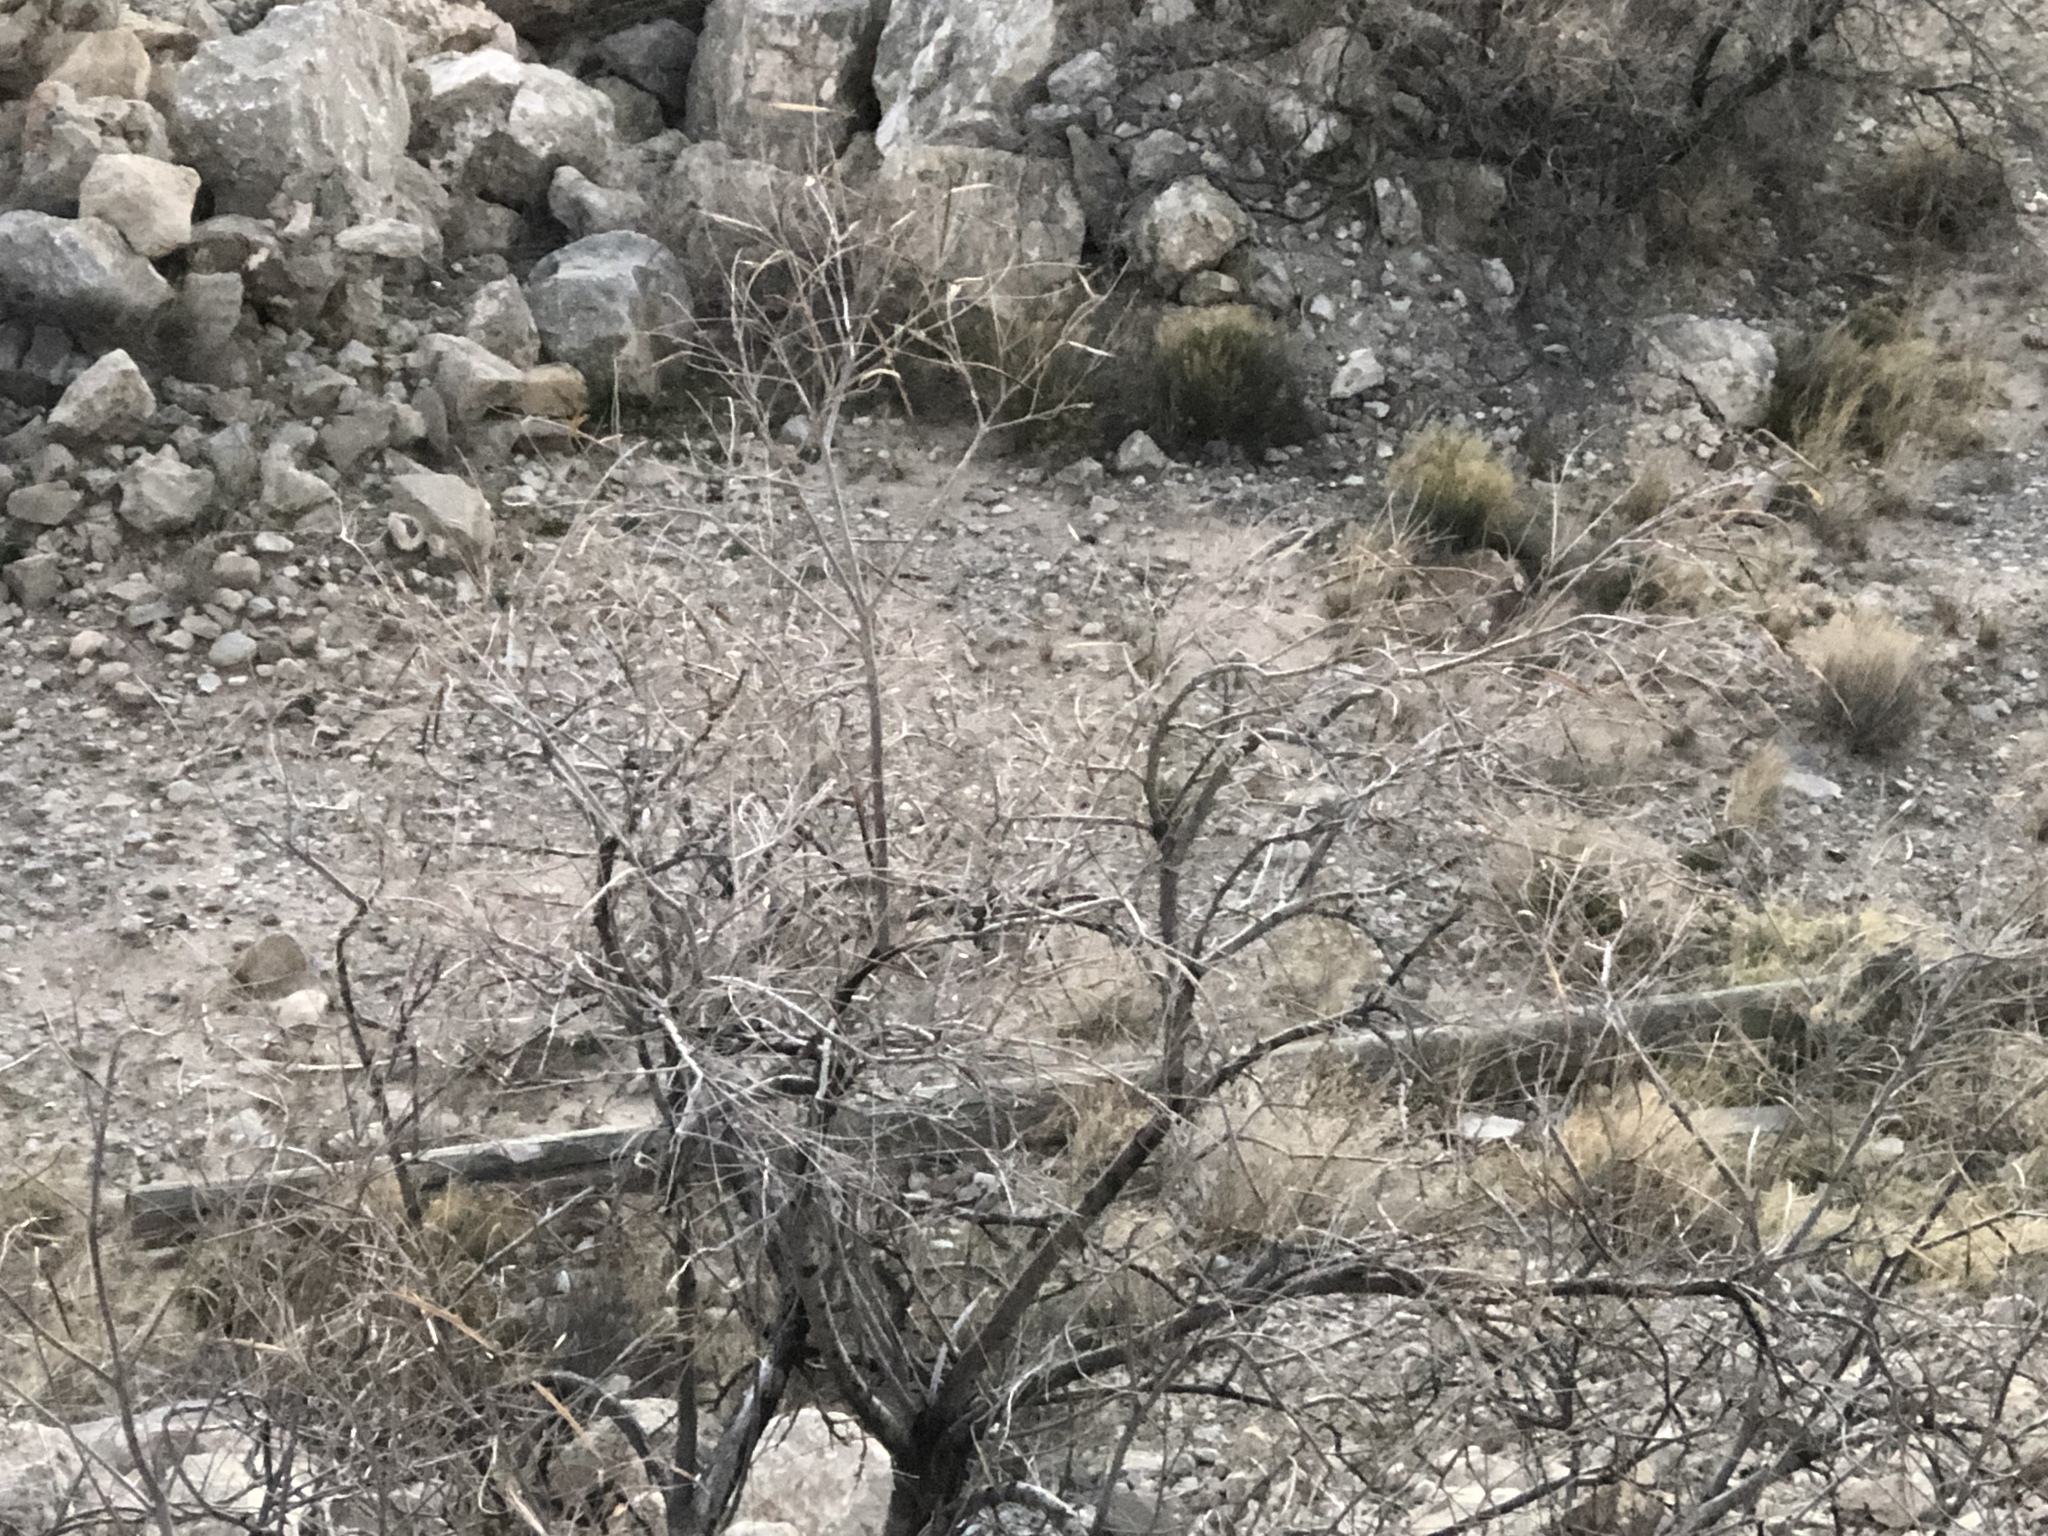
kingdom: Plantae
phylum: Tracheophyta
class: Magnoliopsida
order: Lamiales
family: Bignoniaceae
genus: Chilopsis
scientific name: Chilopsis linearis
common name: Desert-willow
